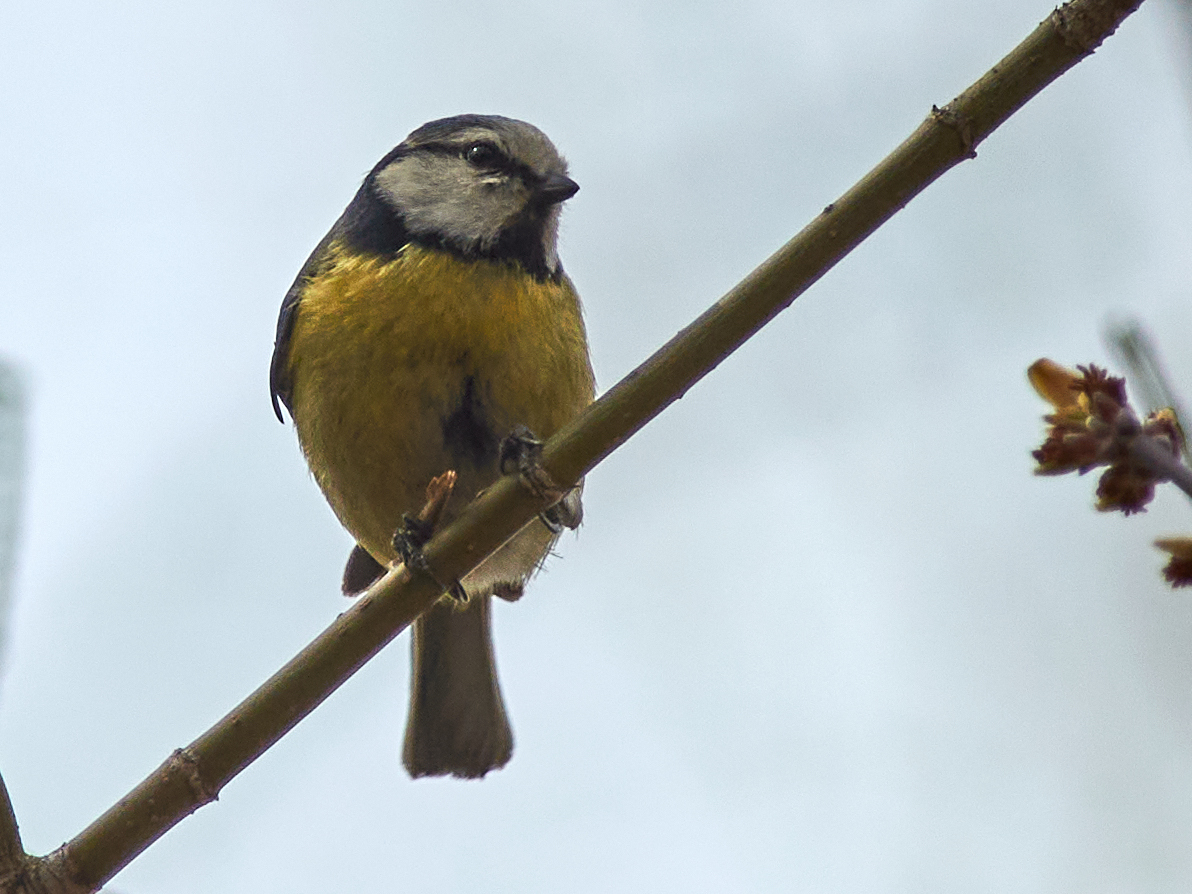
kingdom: Animalia
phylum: Chordata
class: Aves
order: Passeriformes
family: Paridae
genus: Cyanistes
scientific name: Cyanistes caeruleus
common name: Eurasian blue tit
